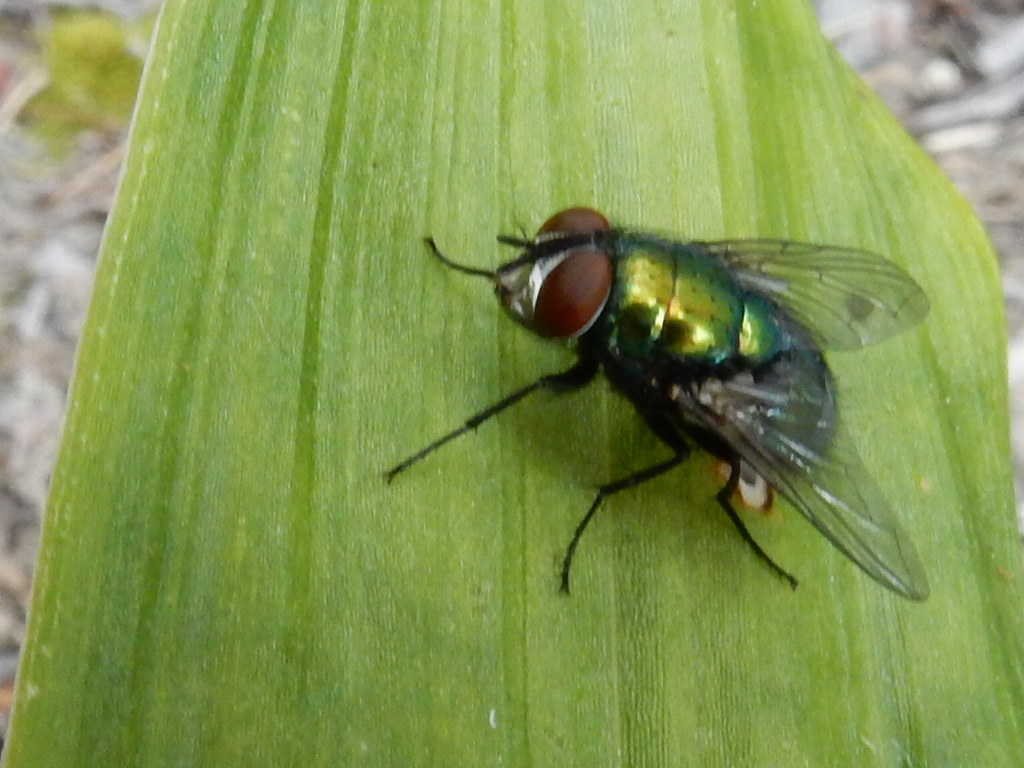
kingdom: Animalia
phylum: Arthropoda
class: Insecta
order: Diptera
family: Calliphoridae
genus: Lucilia
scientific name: Lucilia sericata
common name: Blow fly
